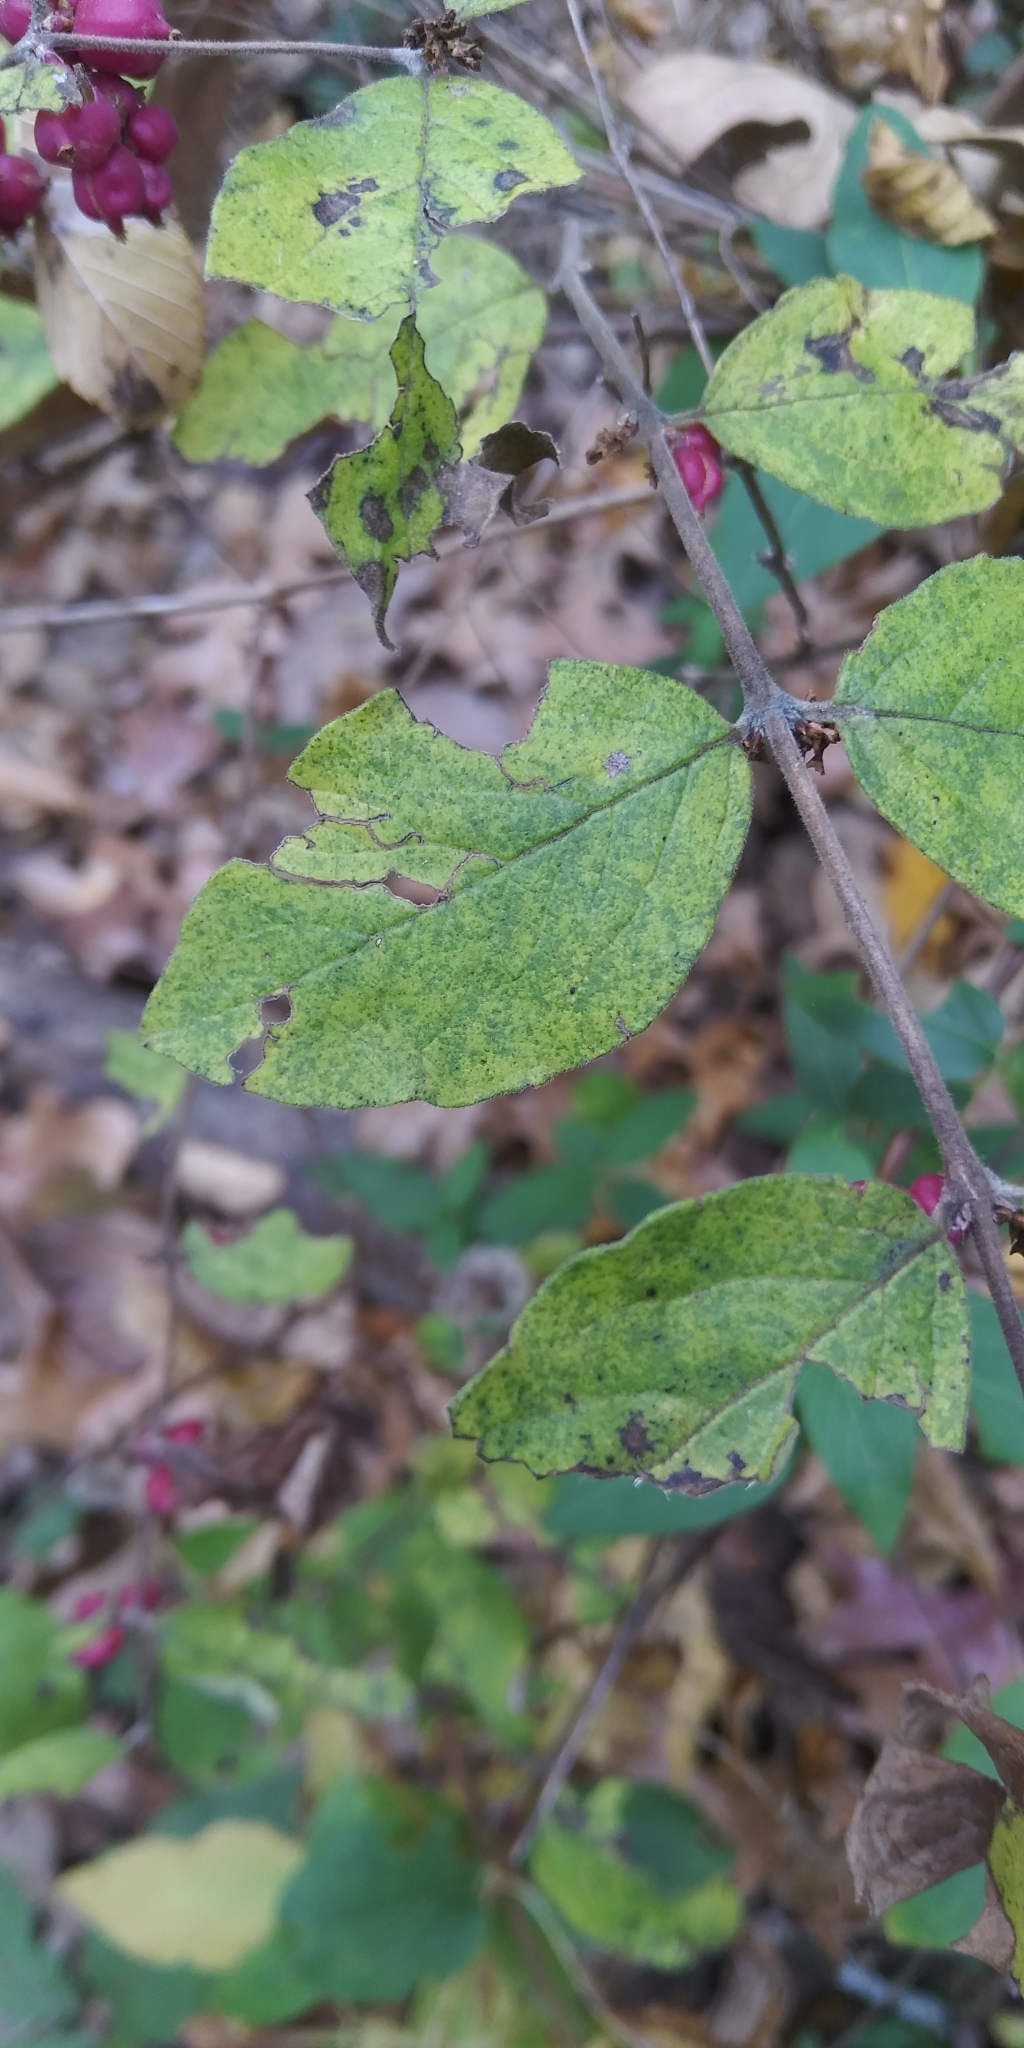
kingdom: Plantae
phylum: Tracheophyta
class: Magnoliopsida
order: Dipsacales
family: Caprifoliaceae
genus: Symphoricarpos
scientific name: Symphoricarpos orbiculatus
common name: Coralberry
